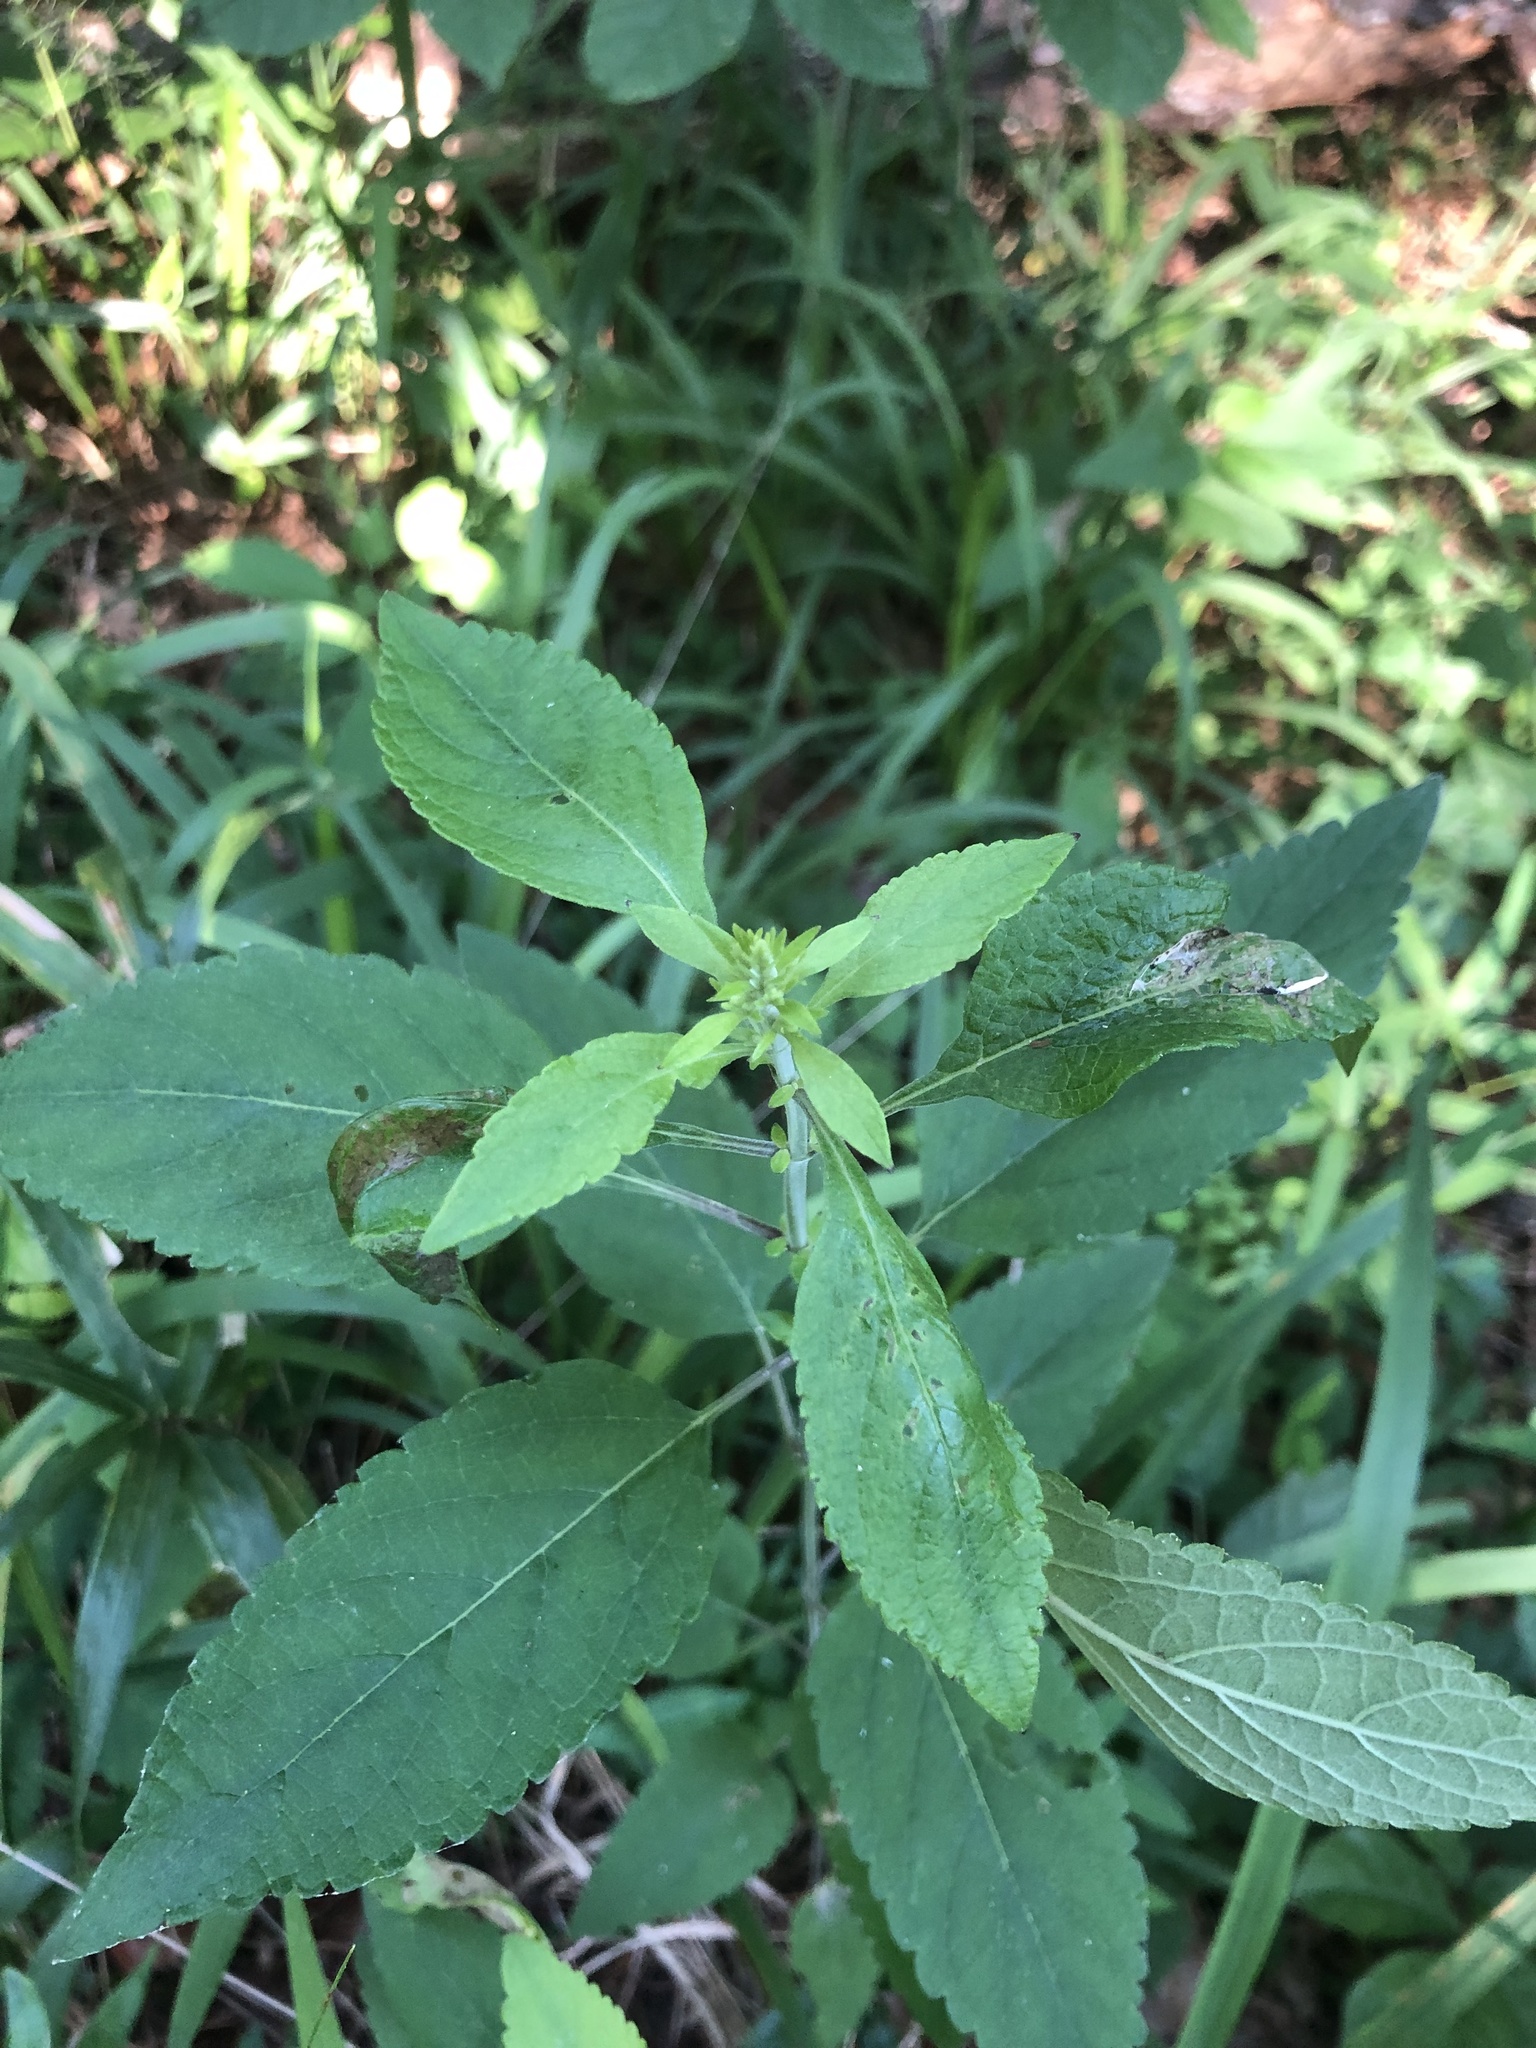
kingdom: Plantae
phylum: Tracheophyta
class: Magnoliopsida
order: Lamiales
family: Lamiaceae
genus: Scutellaria
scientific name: Scutellaria incana
